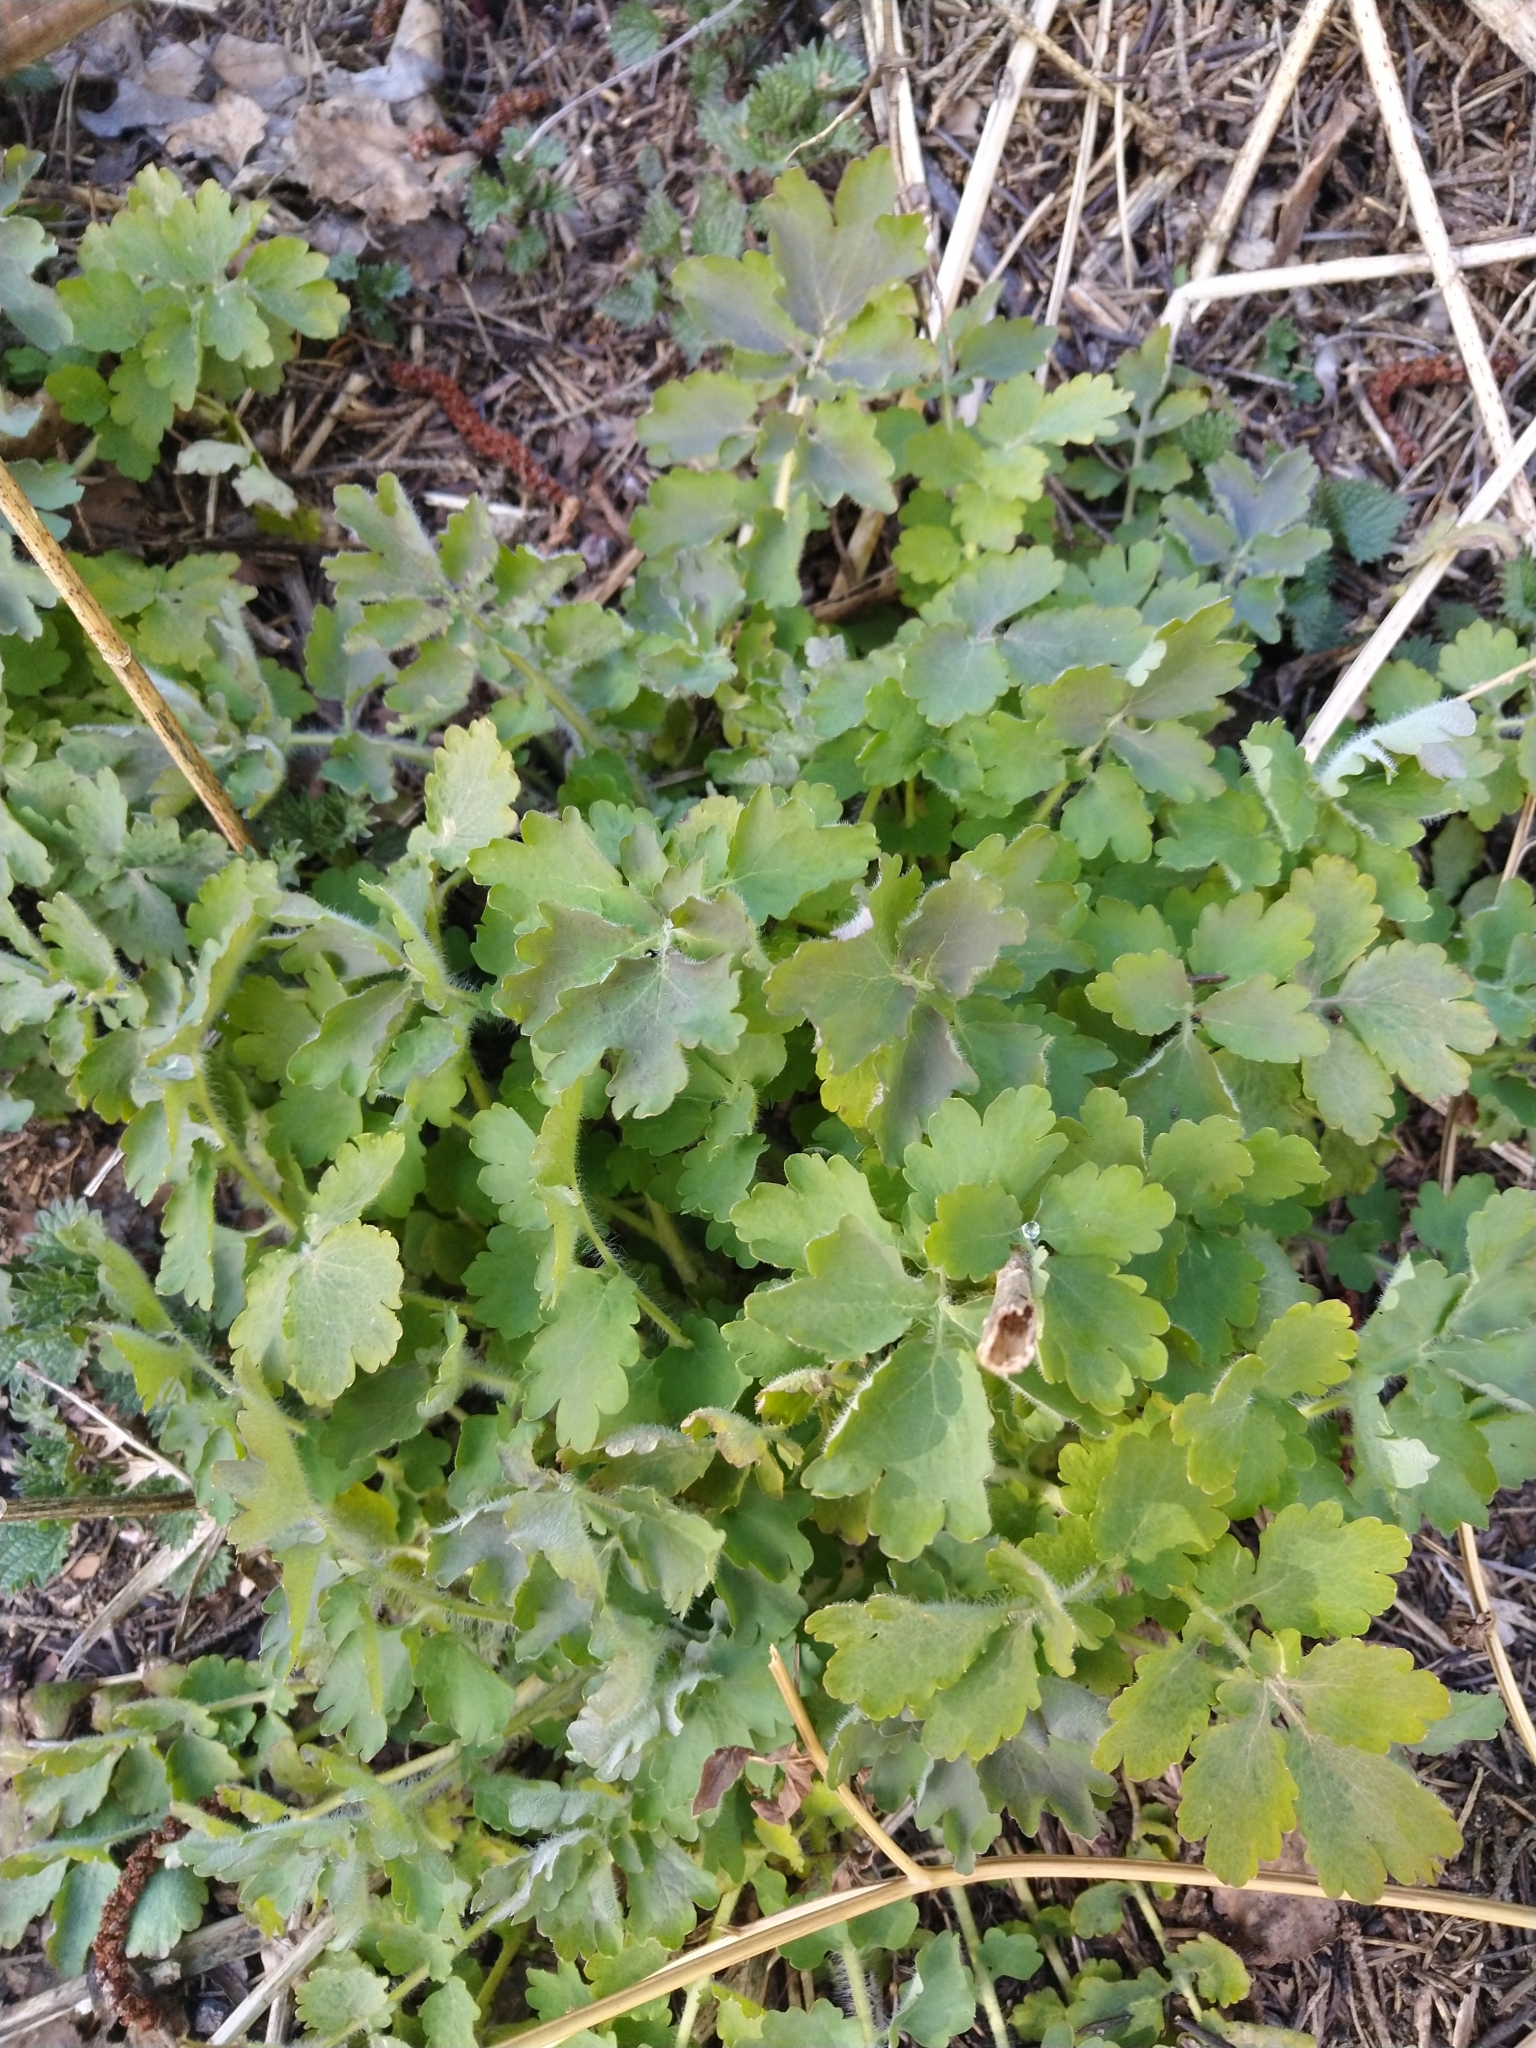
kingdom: Plantae
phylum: Tracheophyta
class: Magnoliopsida
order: Ranunculales
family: Papaveraceae
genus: Chelidonium
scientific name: Chelidonium majus
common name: Greater celandine
